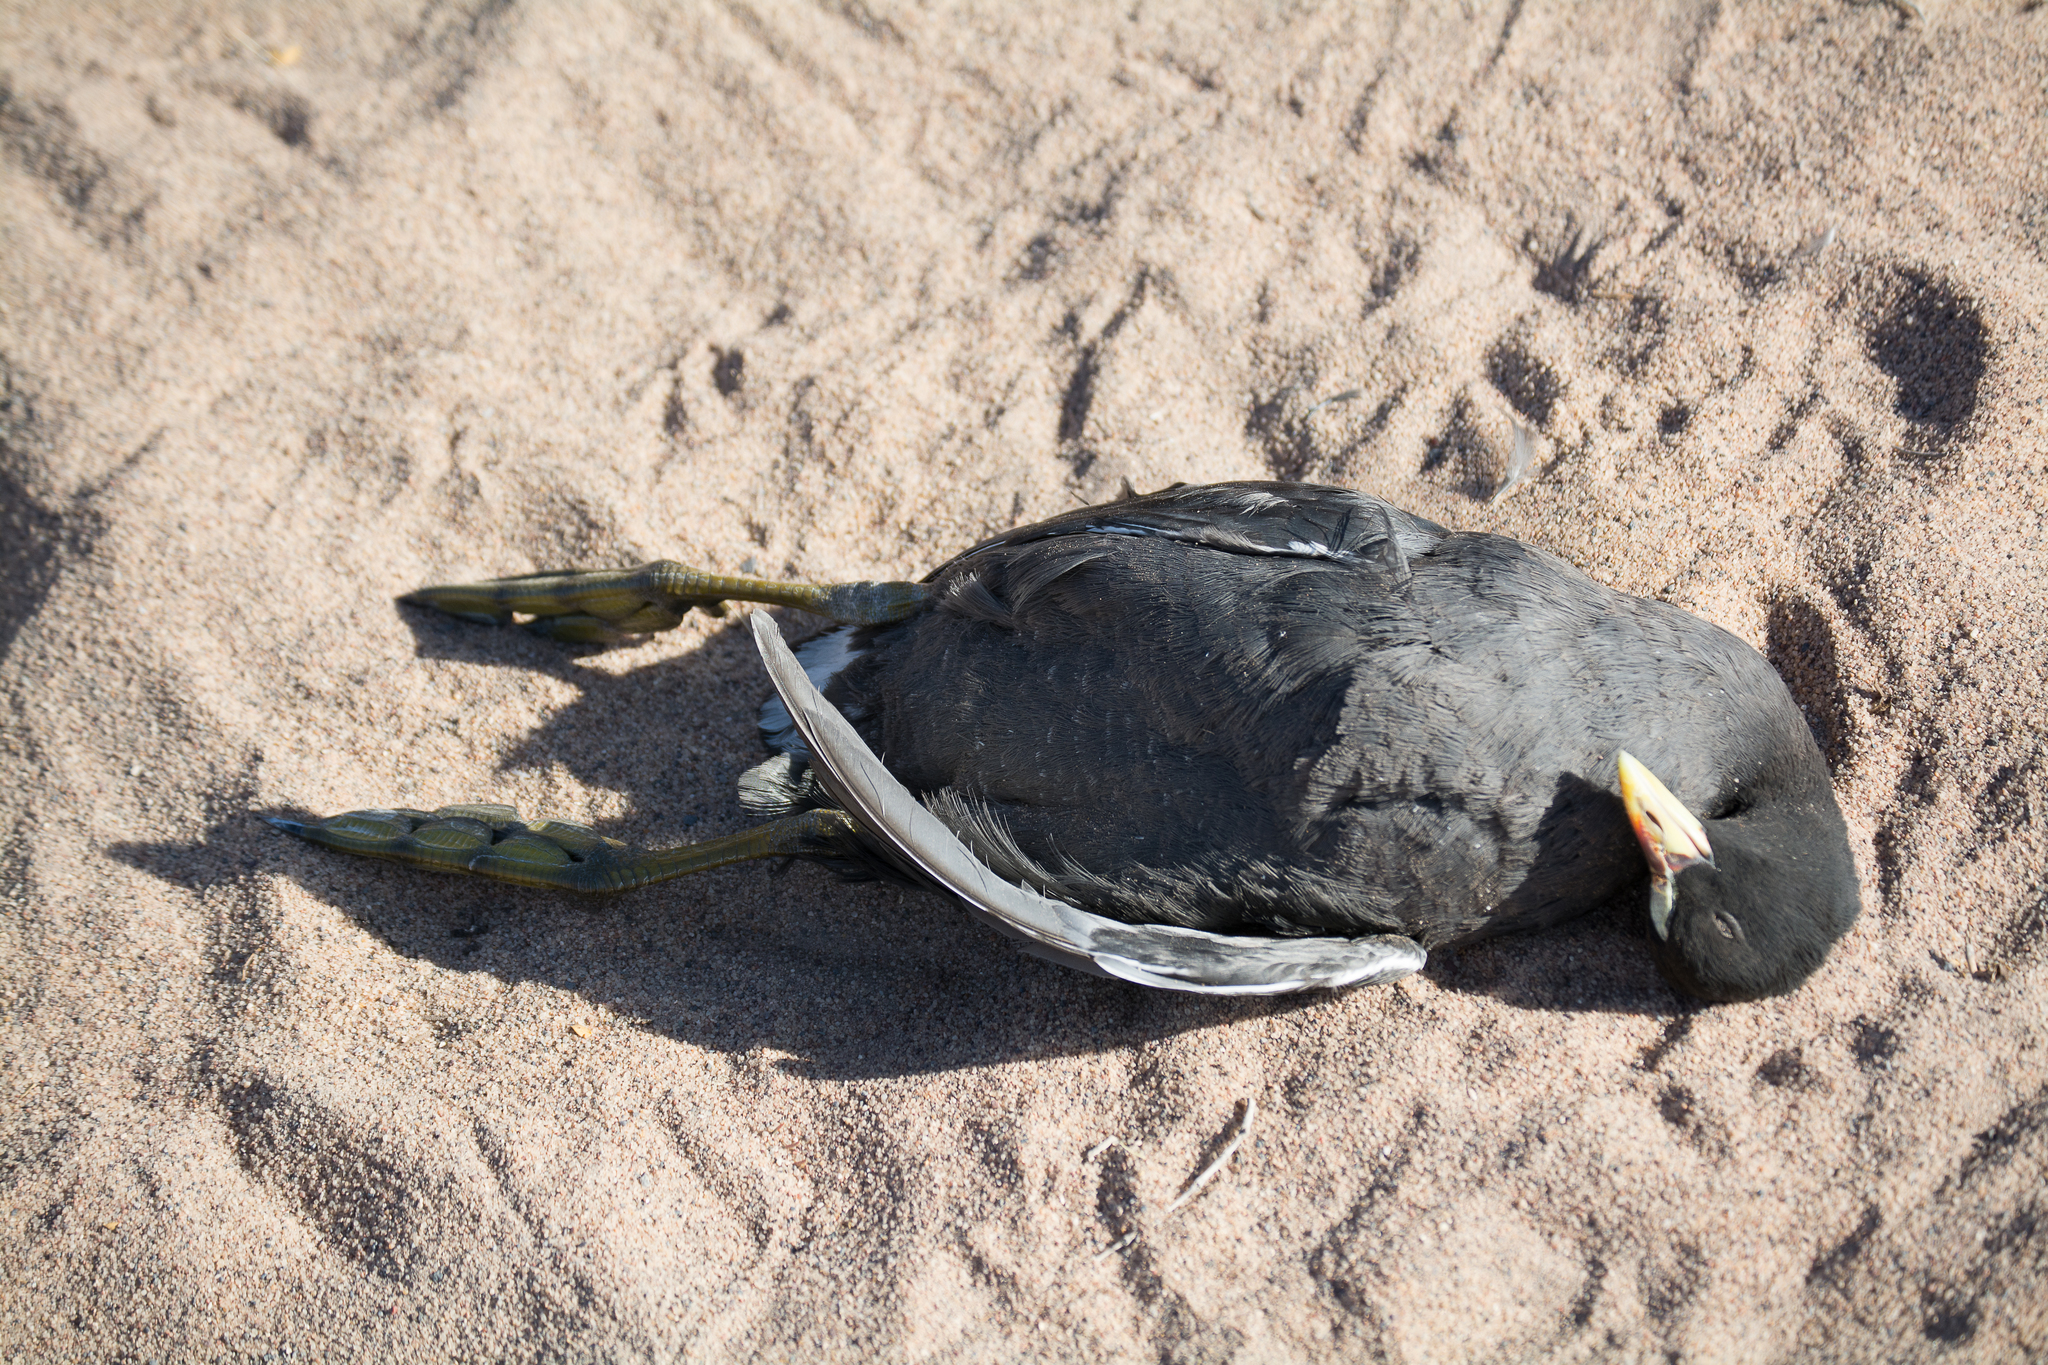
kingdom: Animalia
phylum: Chordata
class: Aves
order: Gruiformes
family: Rallidae
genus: Fulica
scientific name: Fulica armillata
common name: Red-gartered coot
